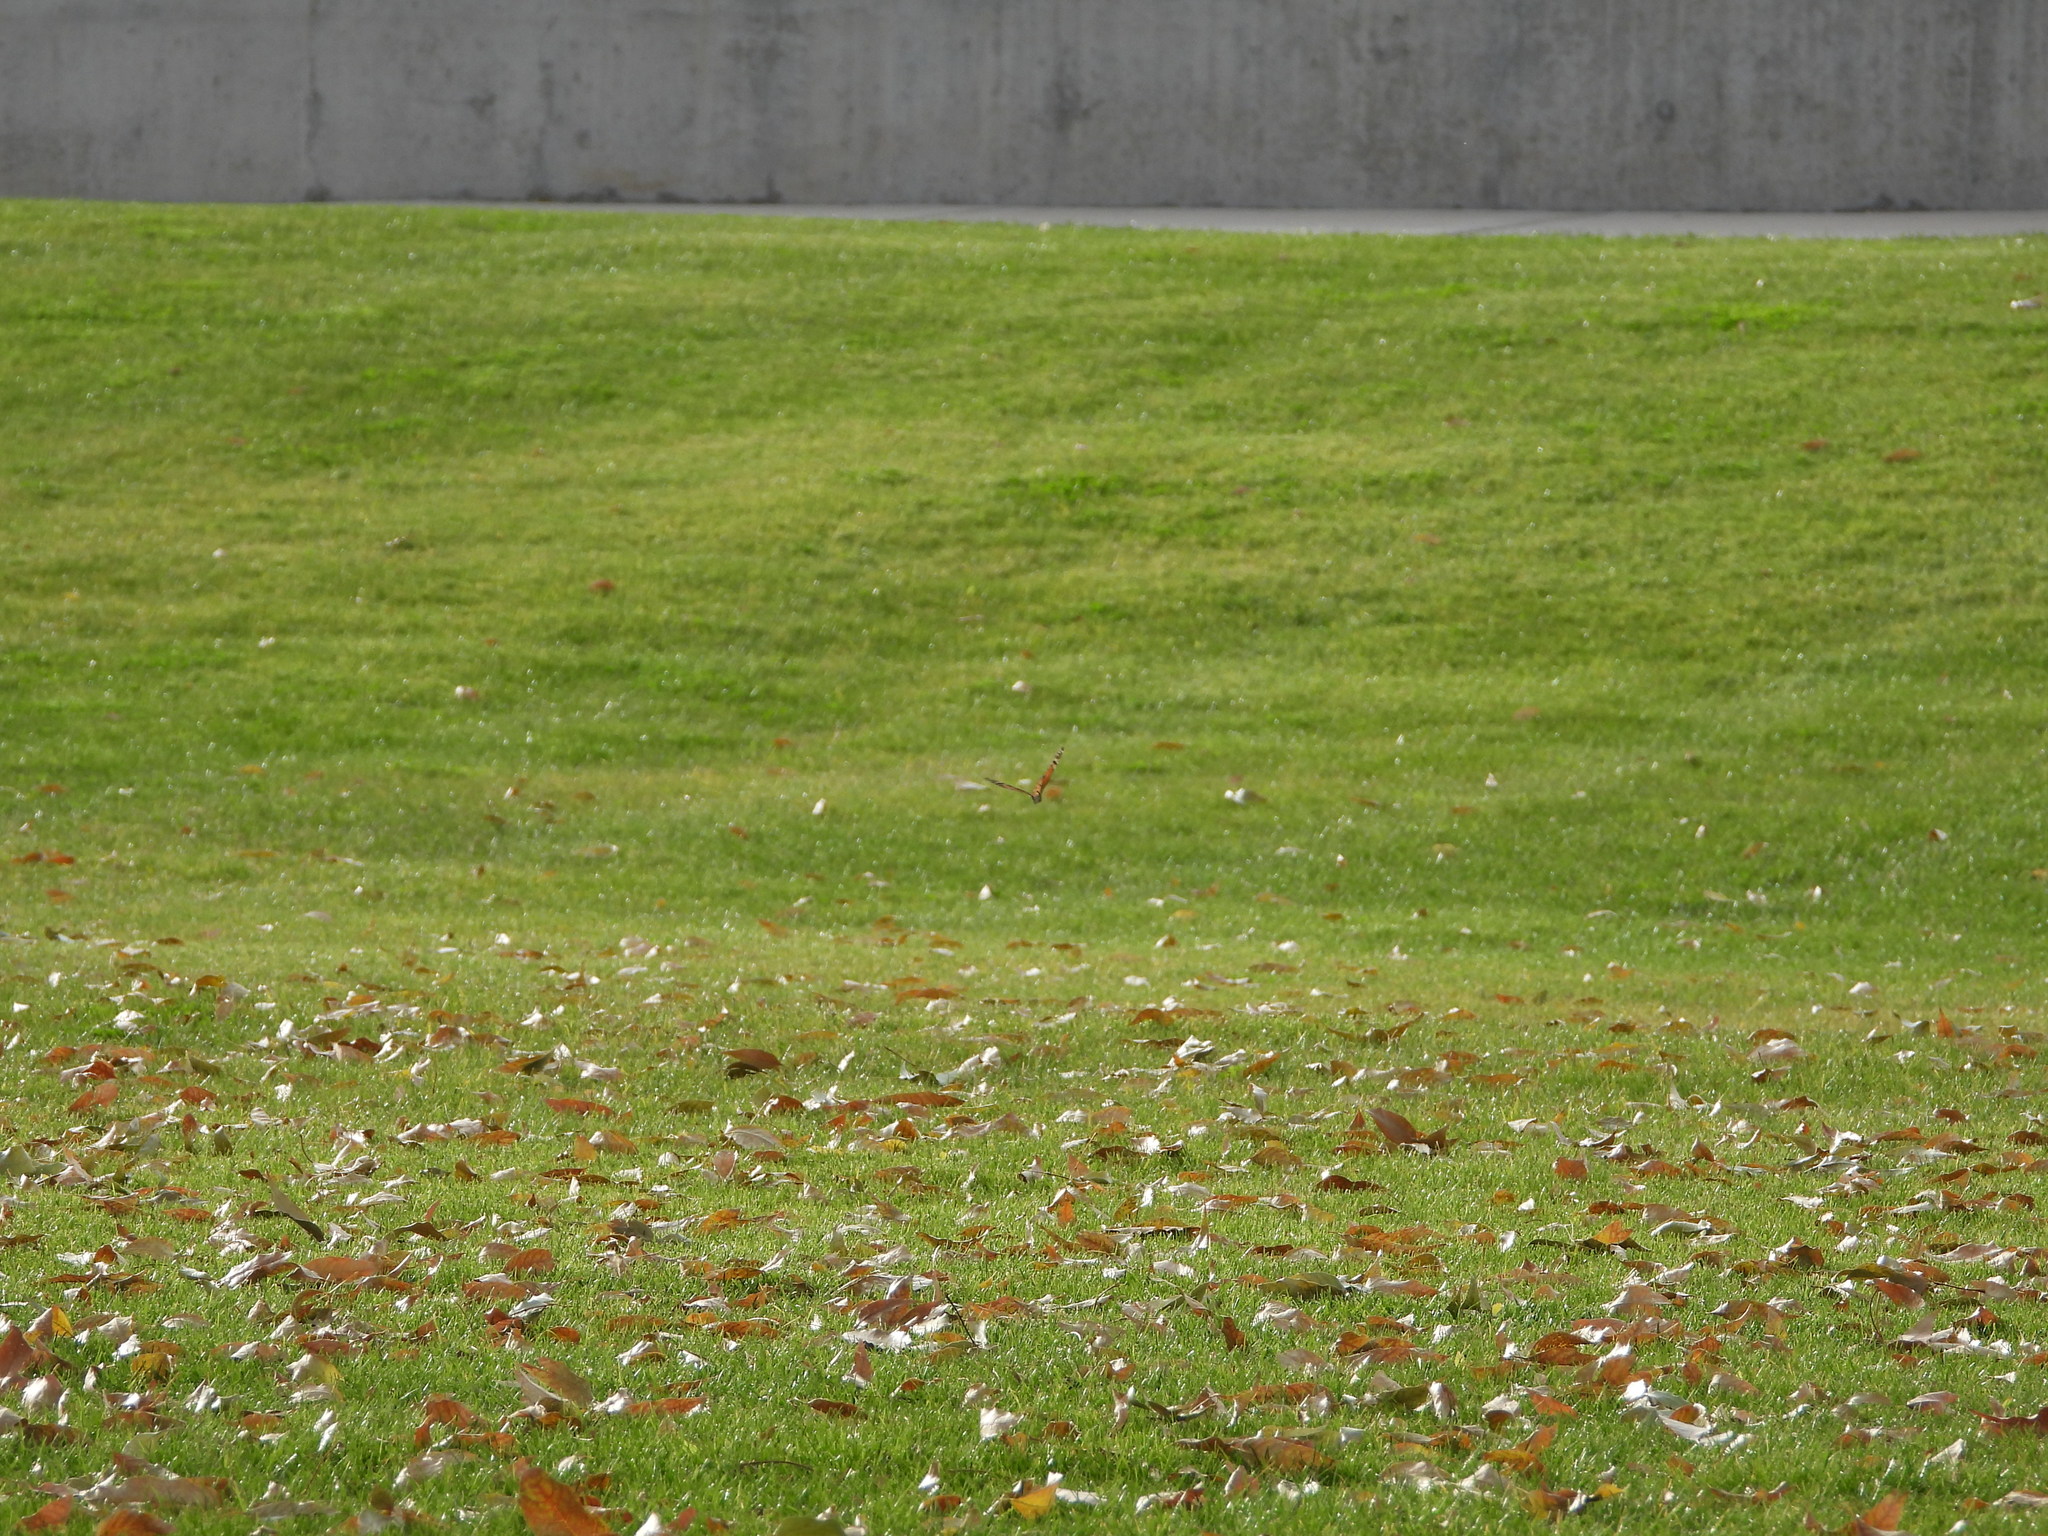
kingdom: Animalia
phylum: Arthropoda
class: Insecta
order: Lepidoptera
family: Nymphalidae
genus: Danaus
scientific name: Danaus plexippus
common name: Monarch
